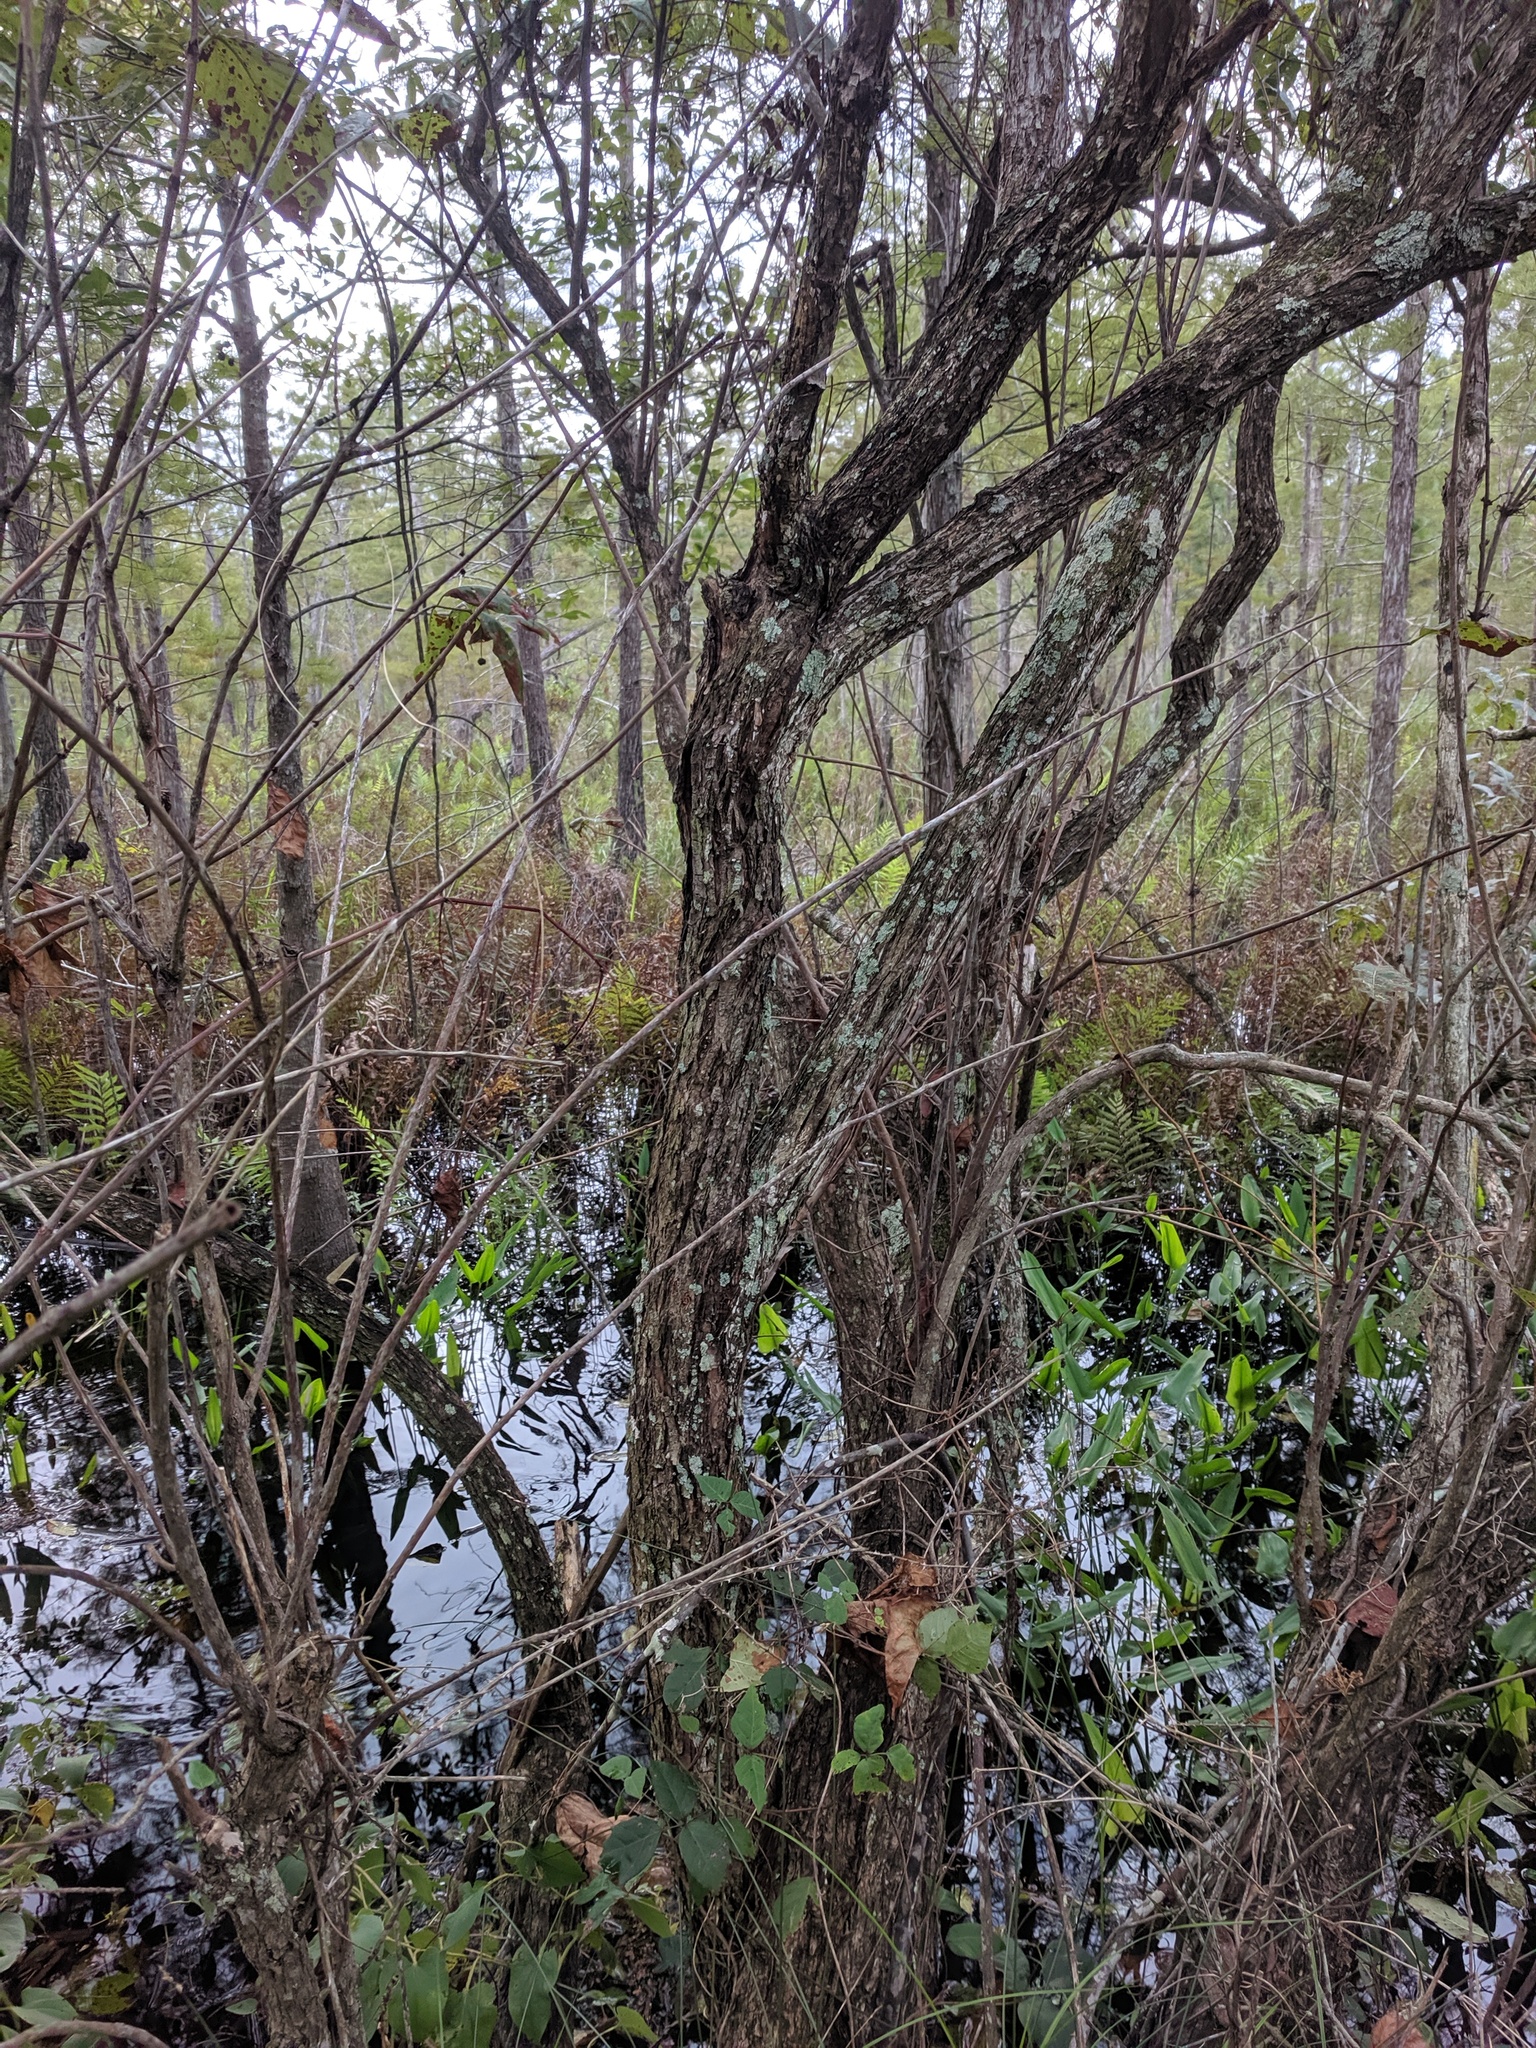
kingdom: Plantae
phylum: Tracheophyta
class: Magnoliopsida
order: Ericales
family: Ebenaceae
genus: Diospyros
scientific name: Diospyros virginiana
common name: Persimmon
